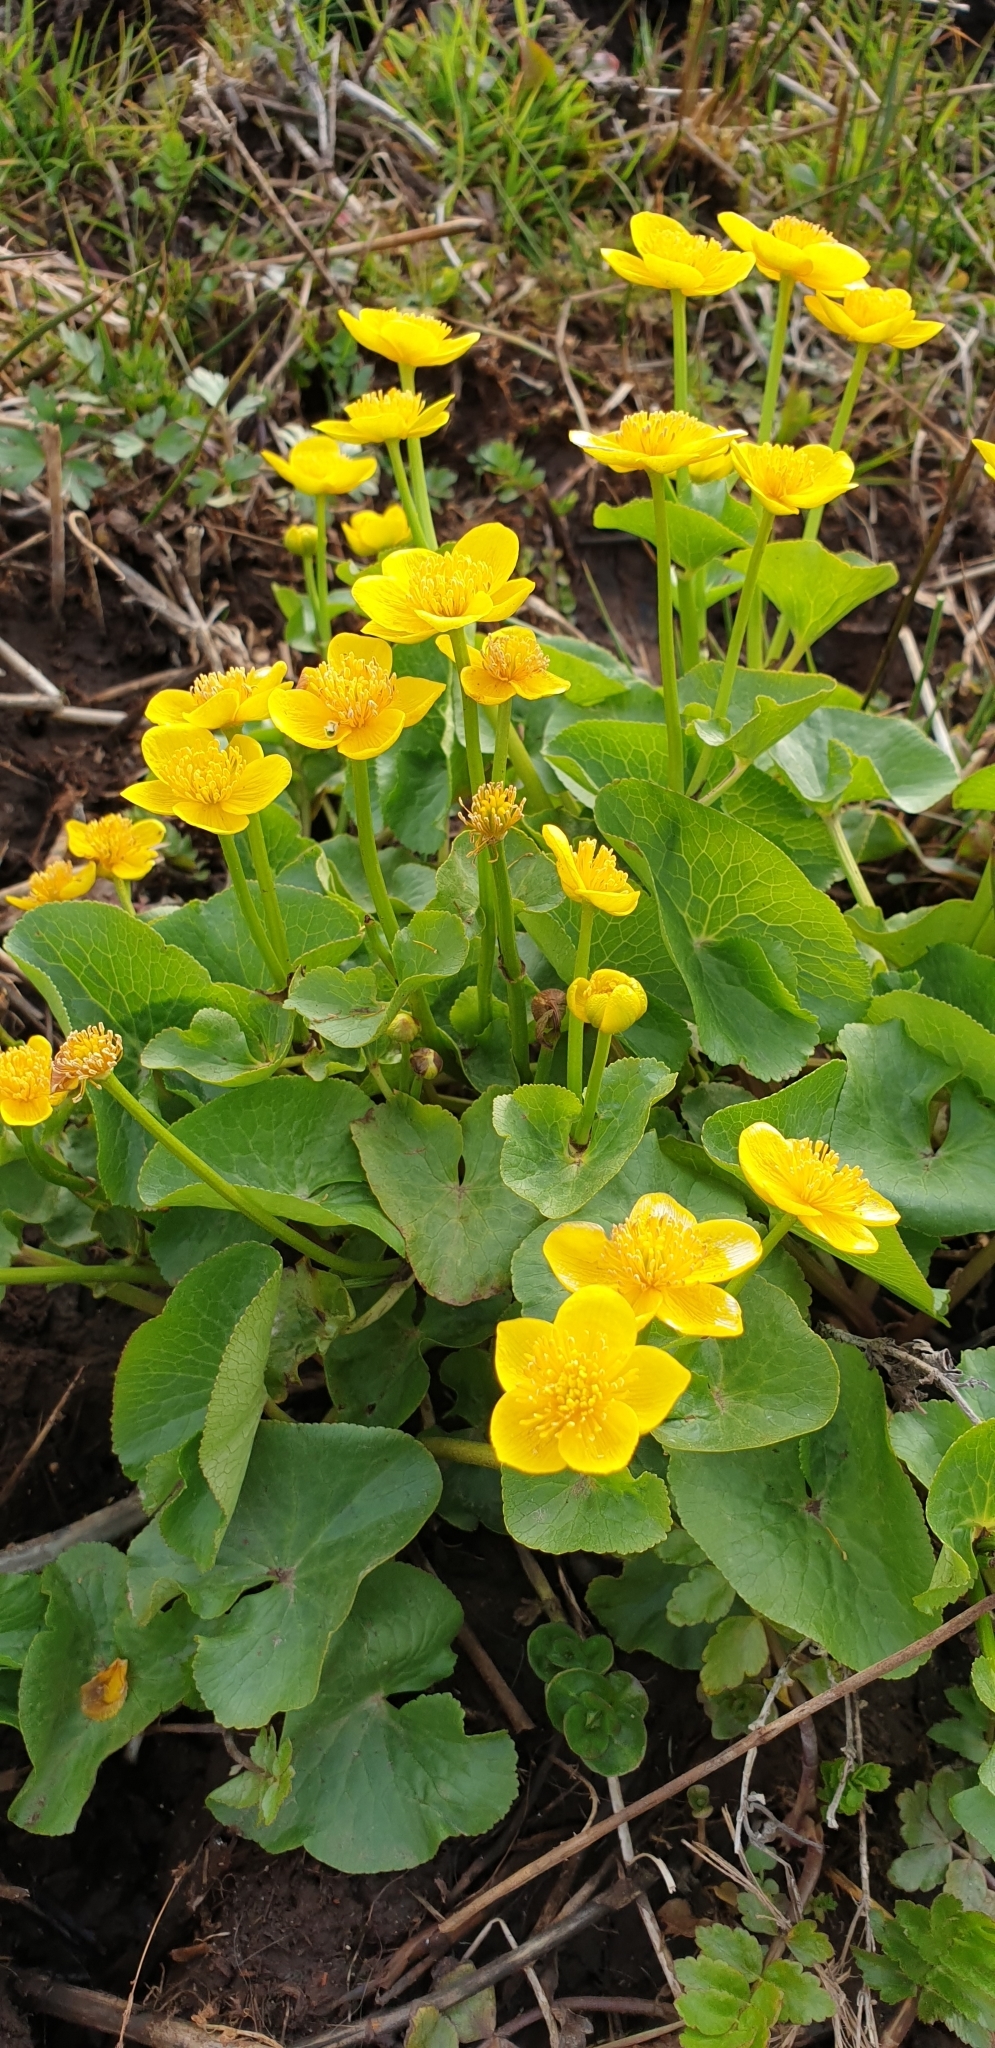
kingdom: Plantae
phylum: Tracheophyta
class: Magnoliopsida
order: Ranunculales
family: Ranunculaceae
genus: Caltha
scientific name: Caltha palustris
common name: Marsh marigold
